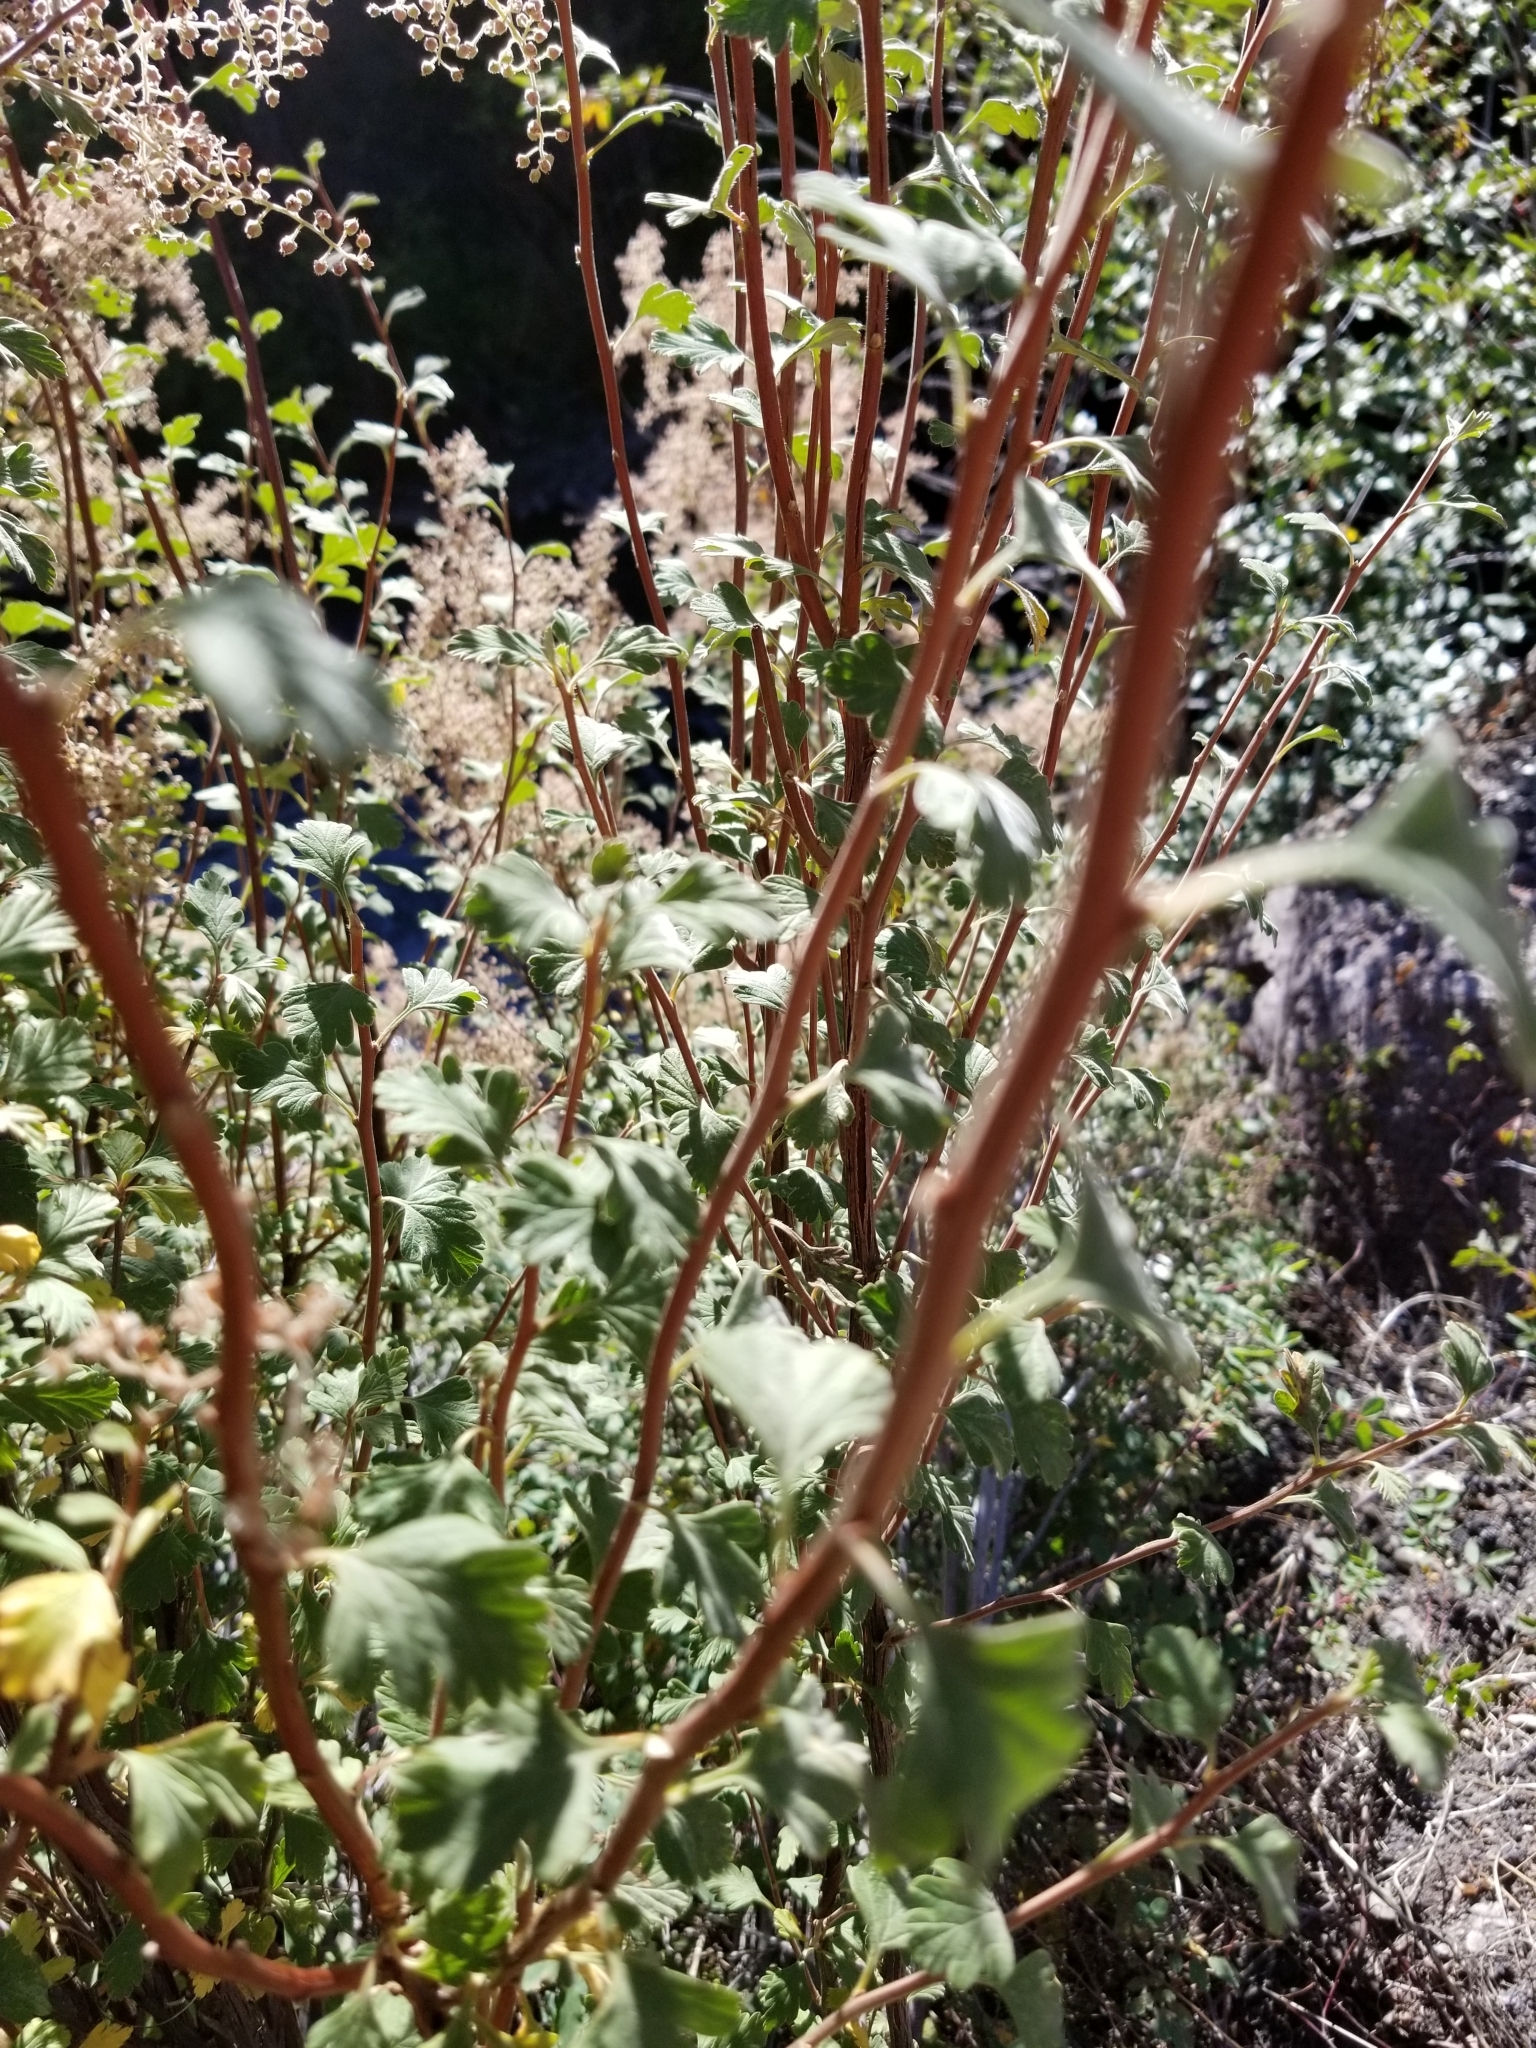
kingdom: Plantae
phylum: Tracheophyta
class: Magnoliopsida
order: Rosales
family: Rosaceae
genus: Holodiscus
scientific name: Holodiscus discolor
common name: Oceanspray
